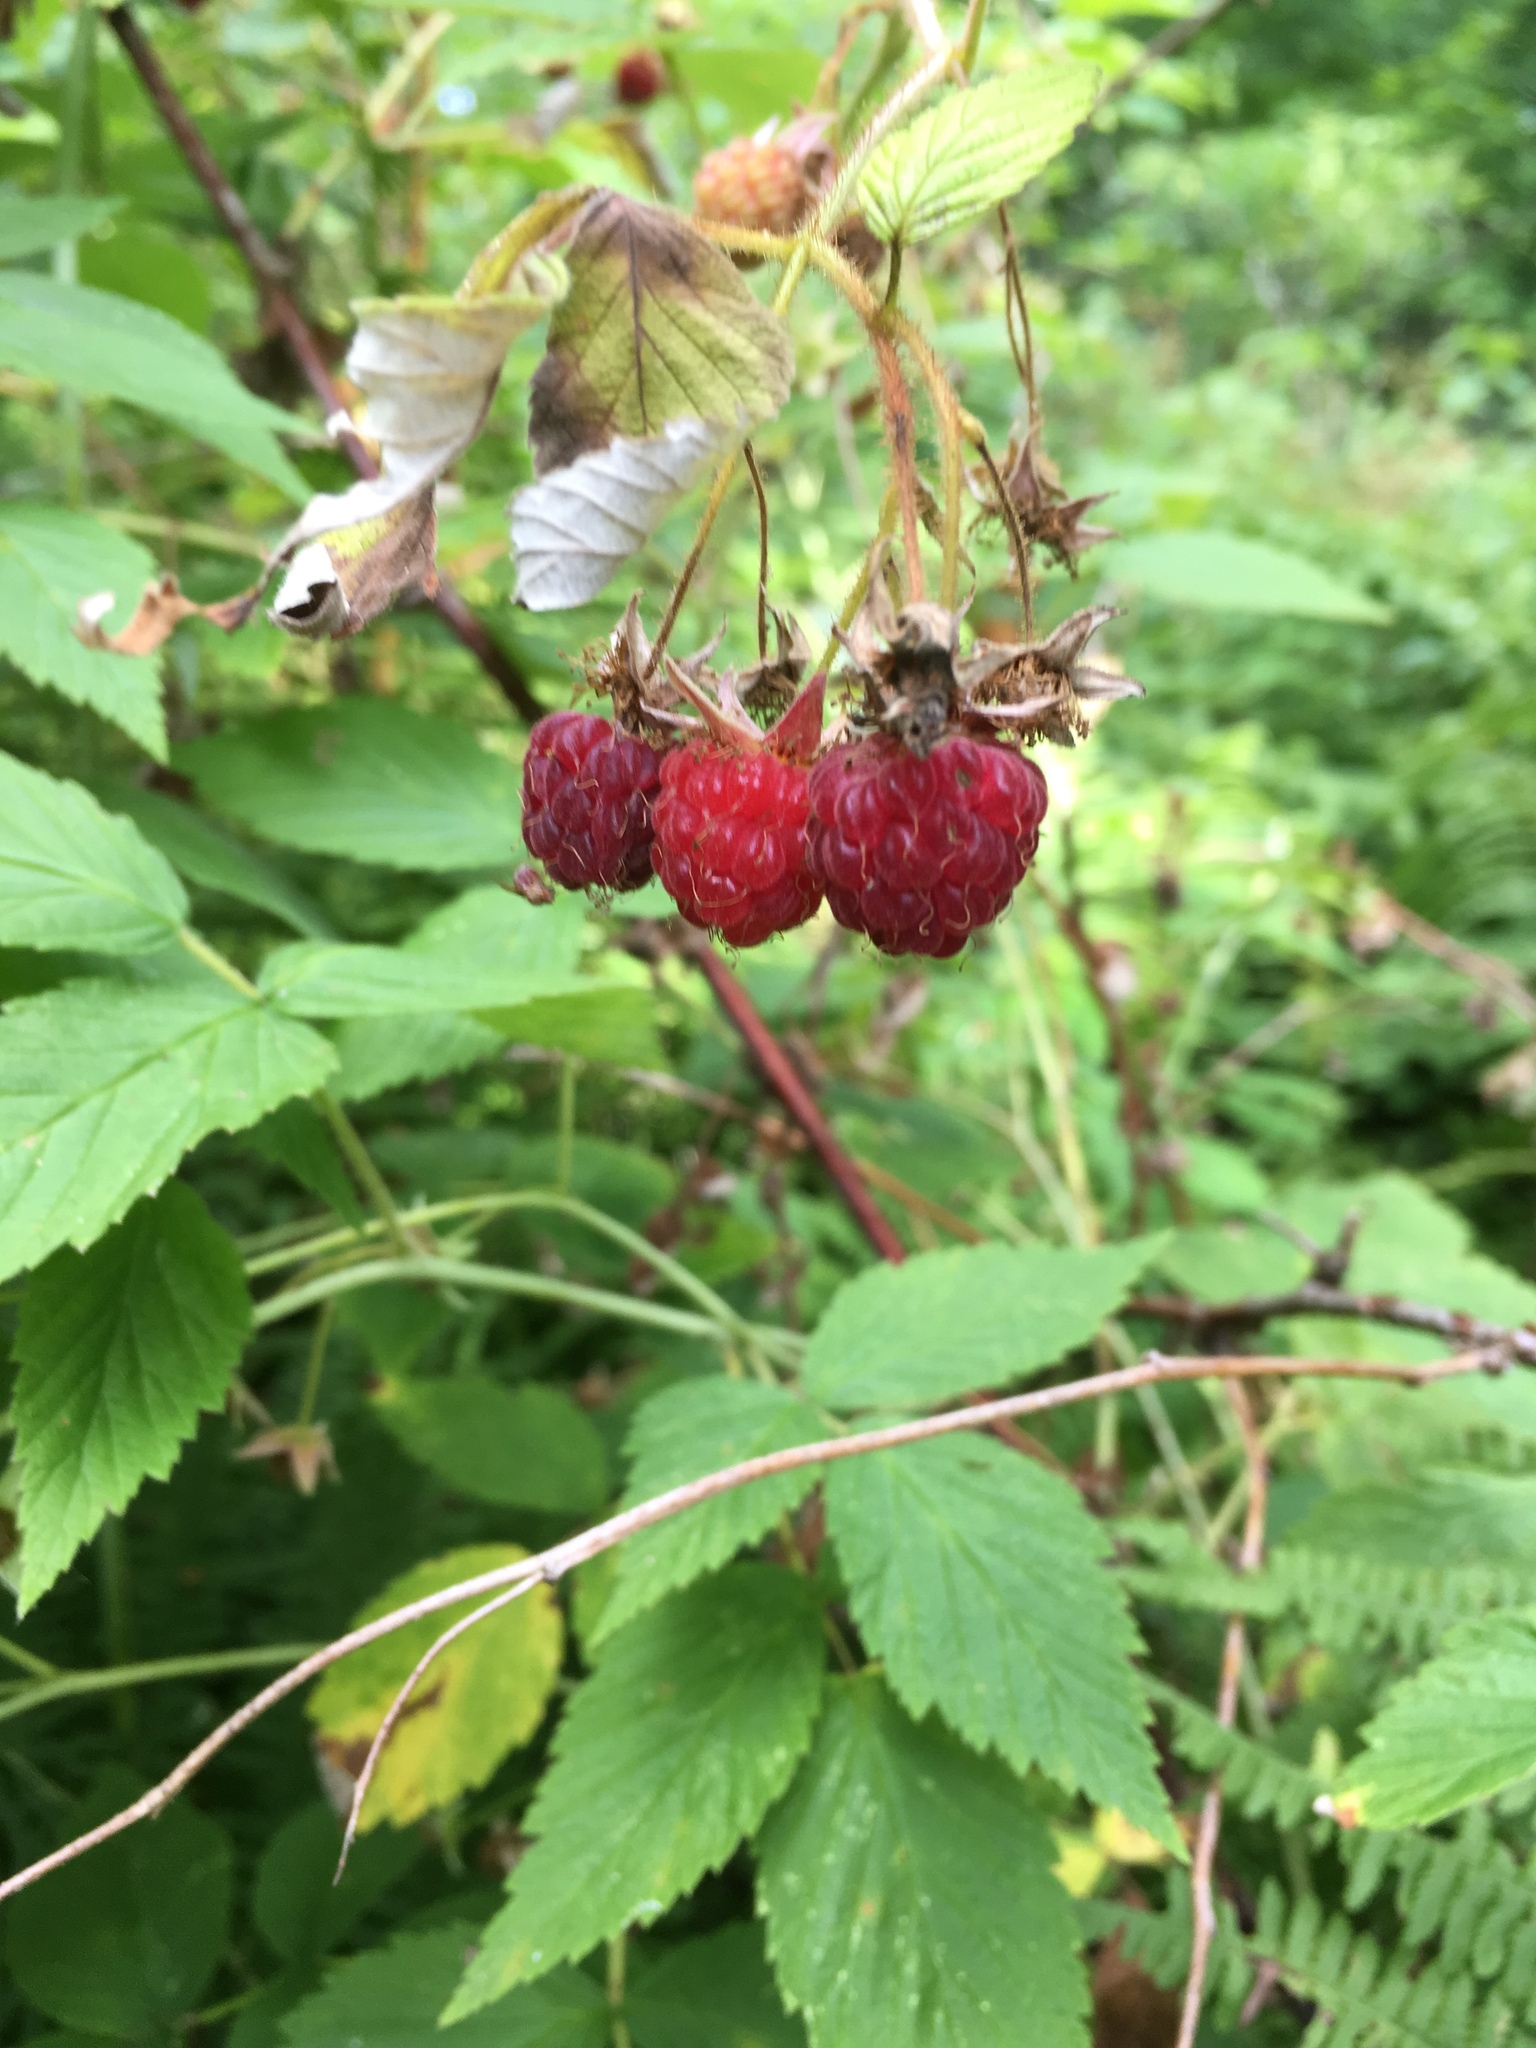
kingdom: Plantae
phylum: Tracheophyta
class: Magnoliopsida
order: Rosales
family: Rosaceae
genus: Rubus
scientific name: Rubus idaeus
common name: Raspberry
